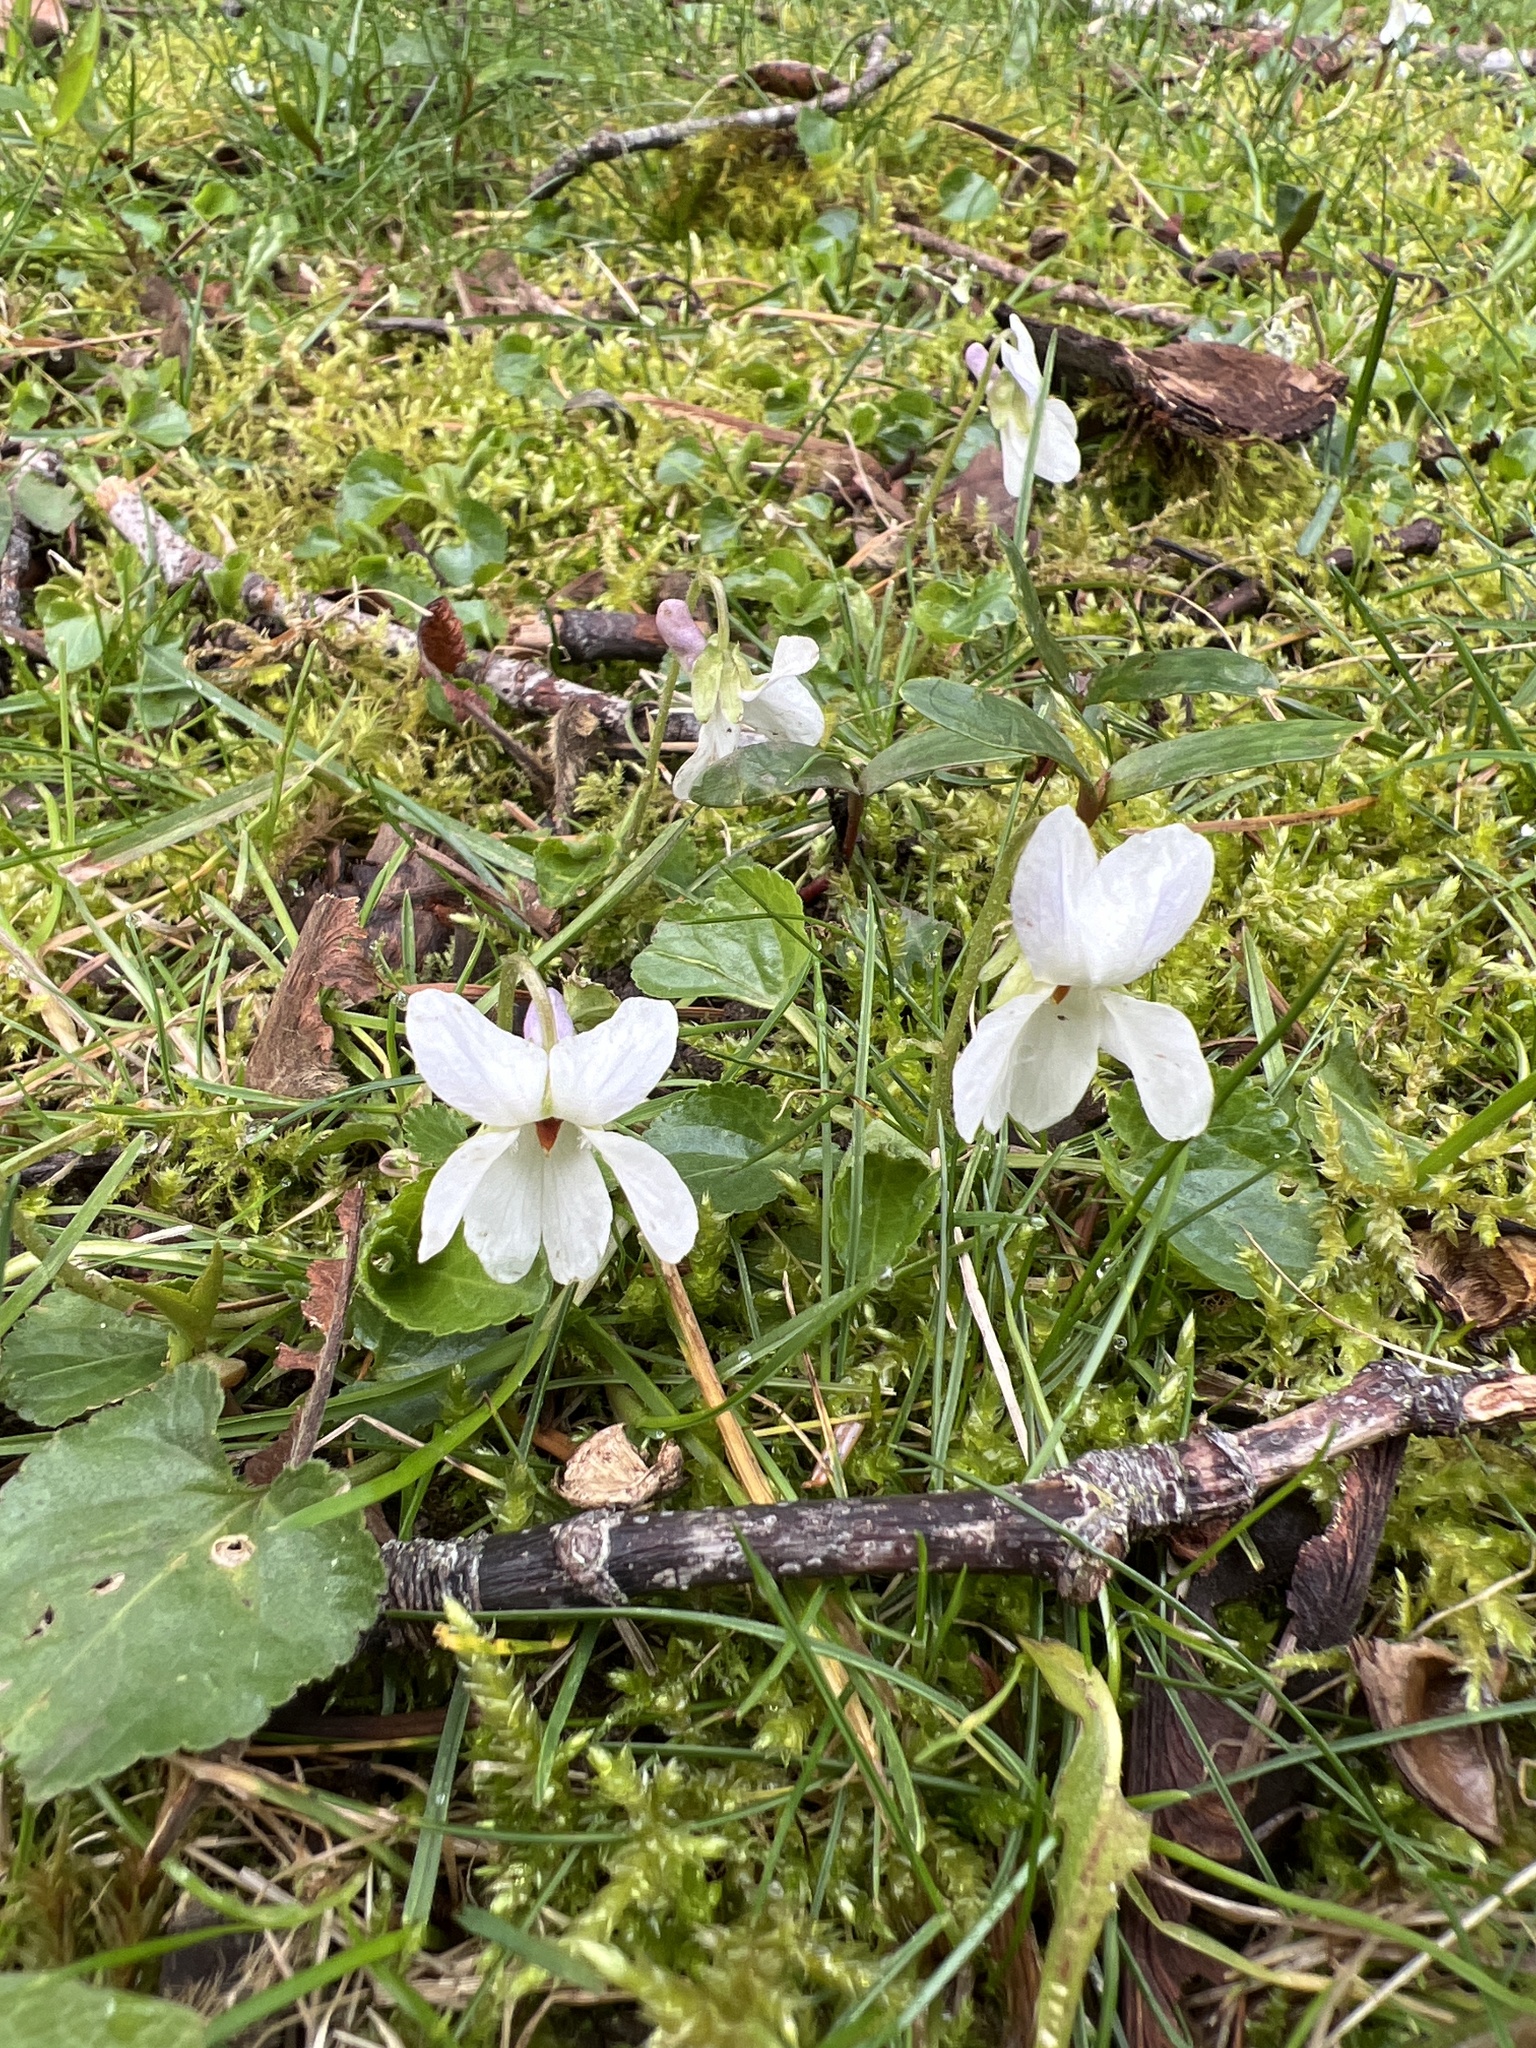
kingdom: Plantae
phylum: Tracheophyta
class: Magnoliopsida
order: Malpighiales
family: Violaceae
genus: Viola
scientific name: Viola odorata
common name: Sweet violet
